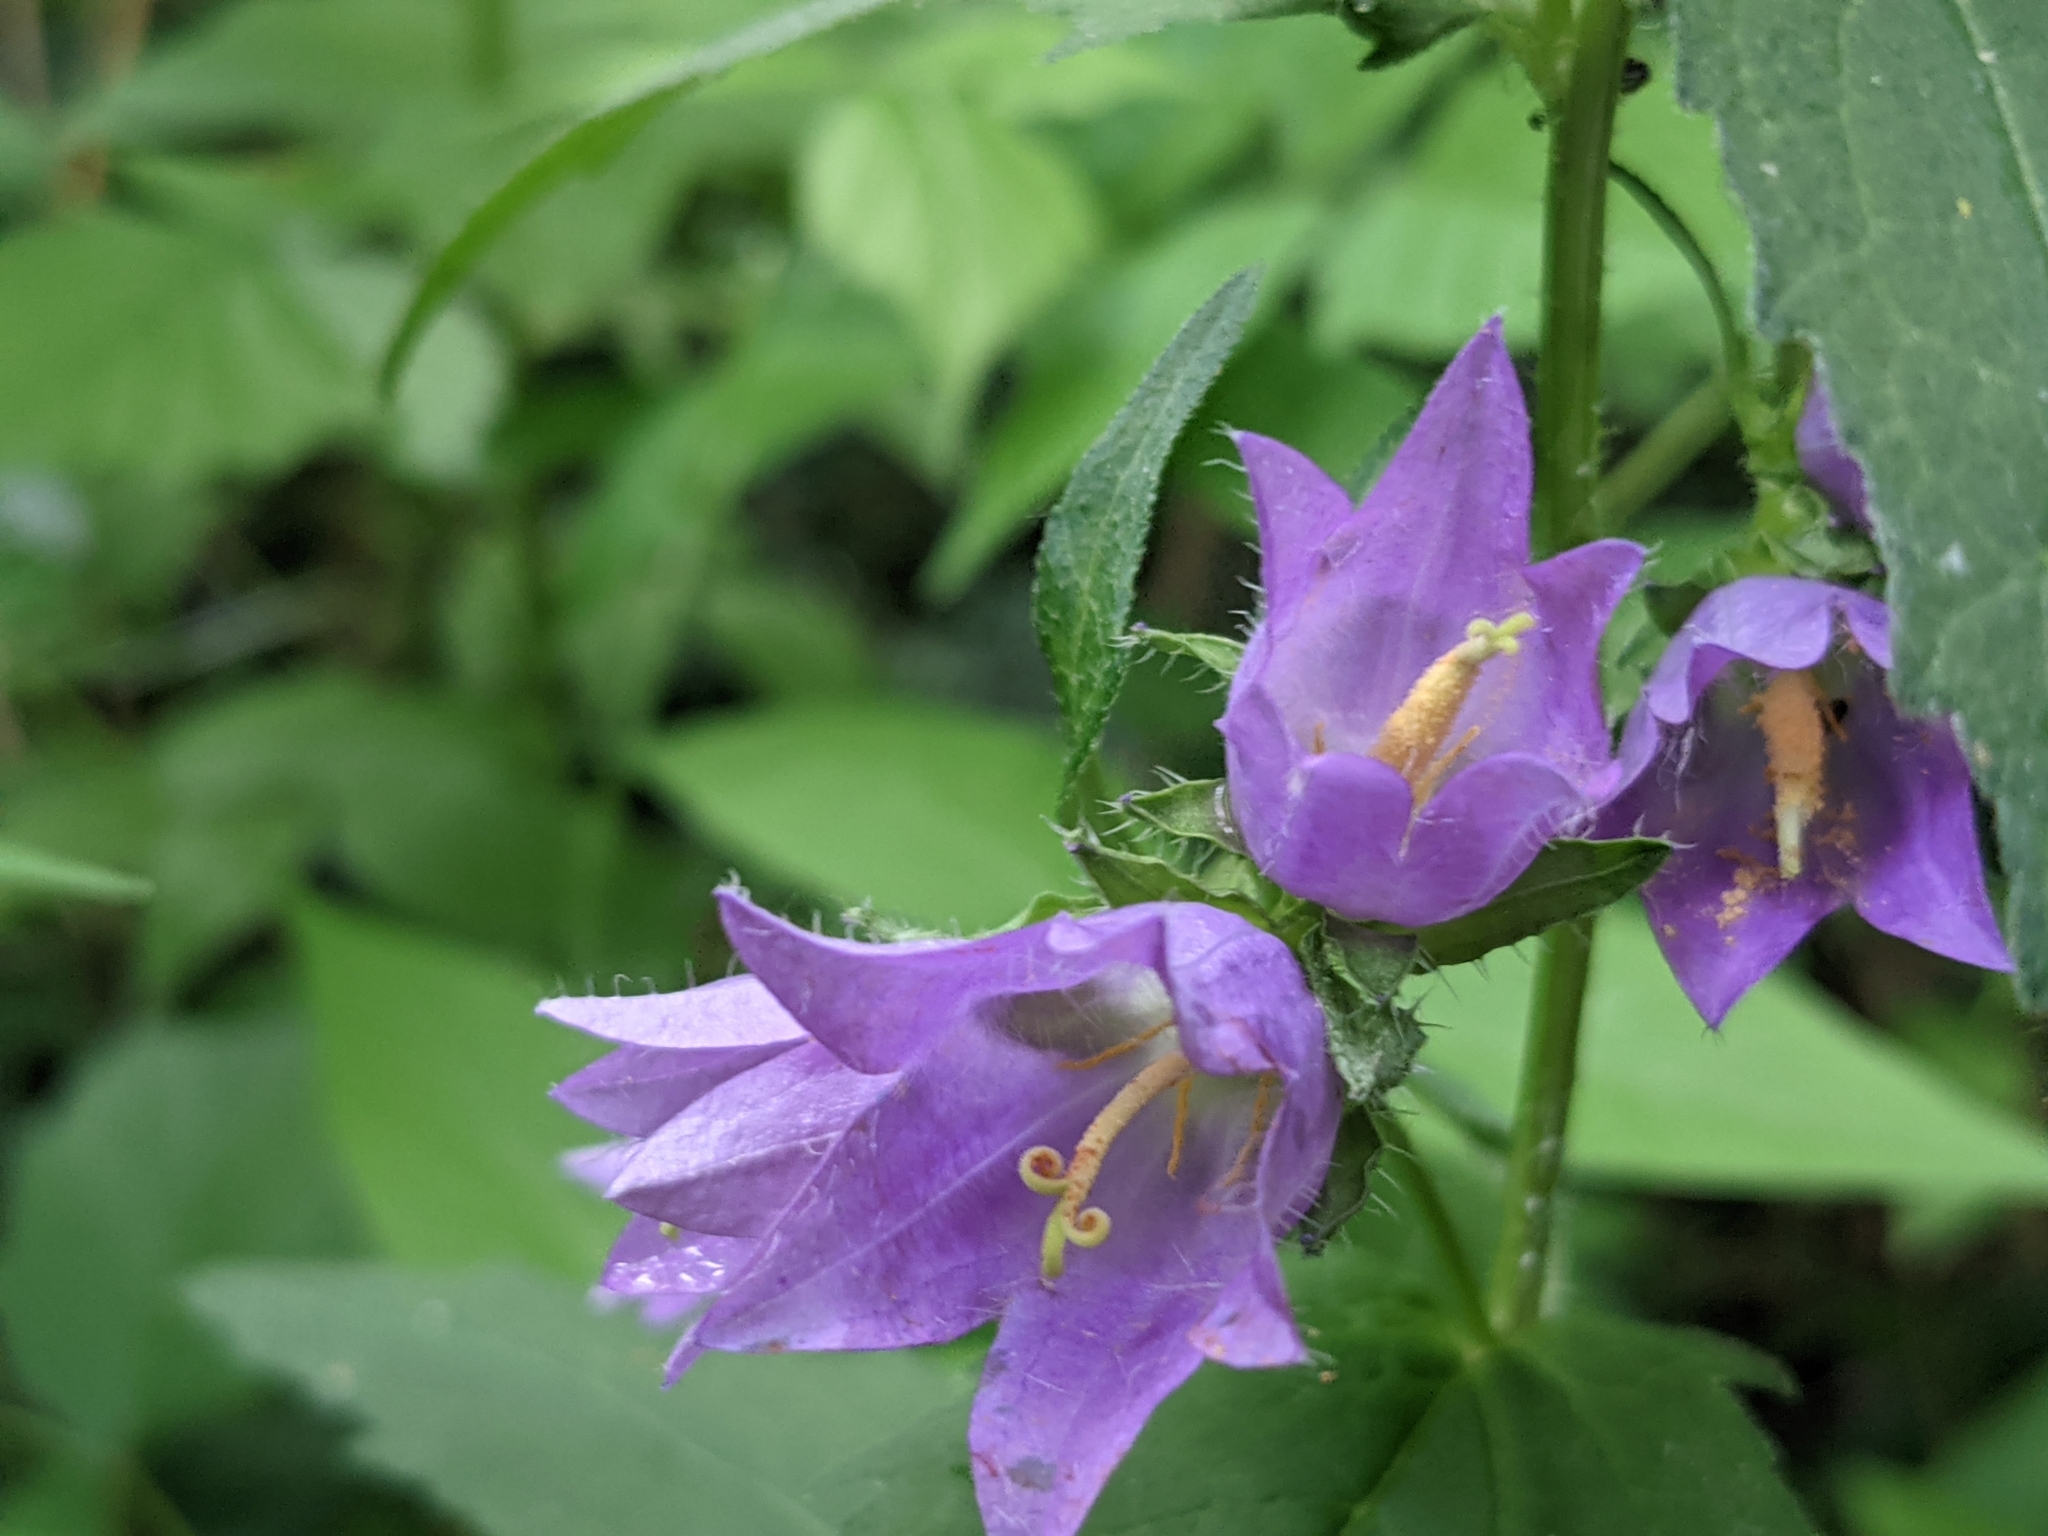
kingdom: Plantae
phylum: Tracheophyta
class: Magnoliopsida
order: Asterales
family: Campanulaceae
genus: Campanula
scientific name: Campanula trachelium
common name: Nettle-leaved bellflower
